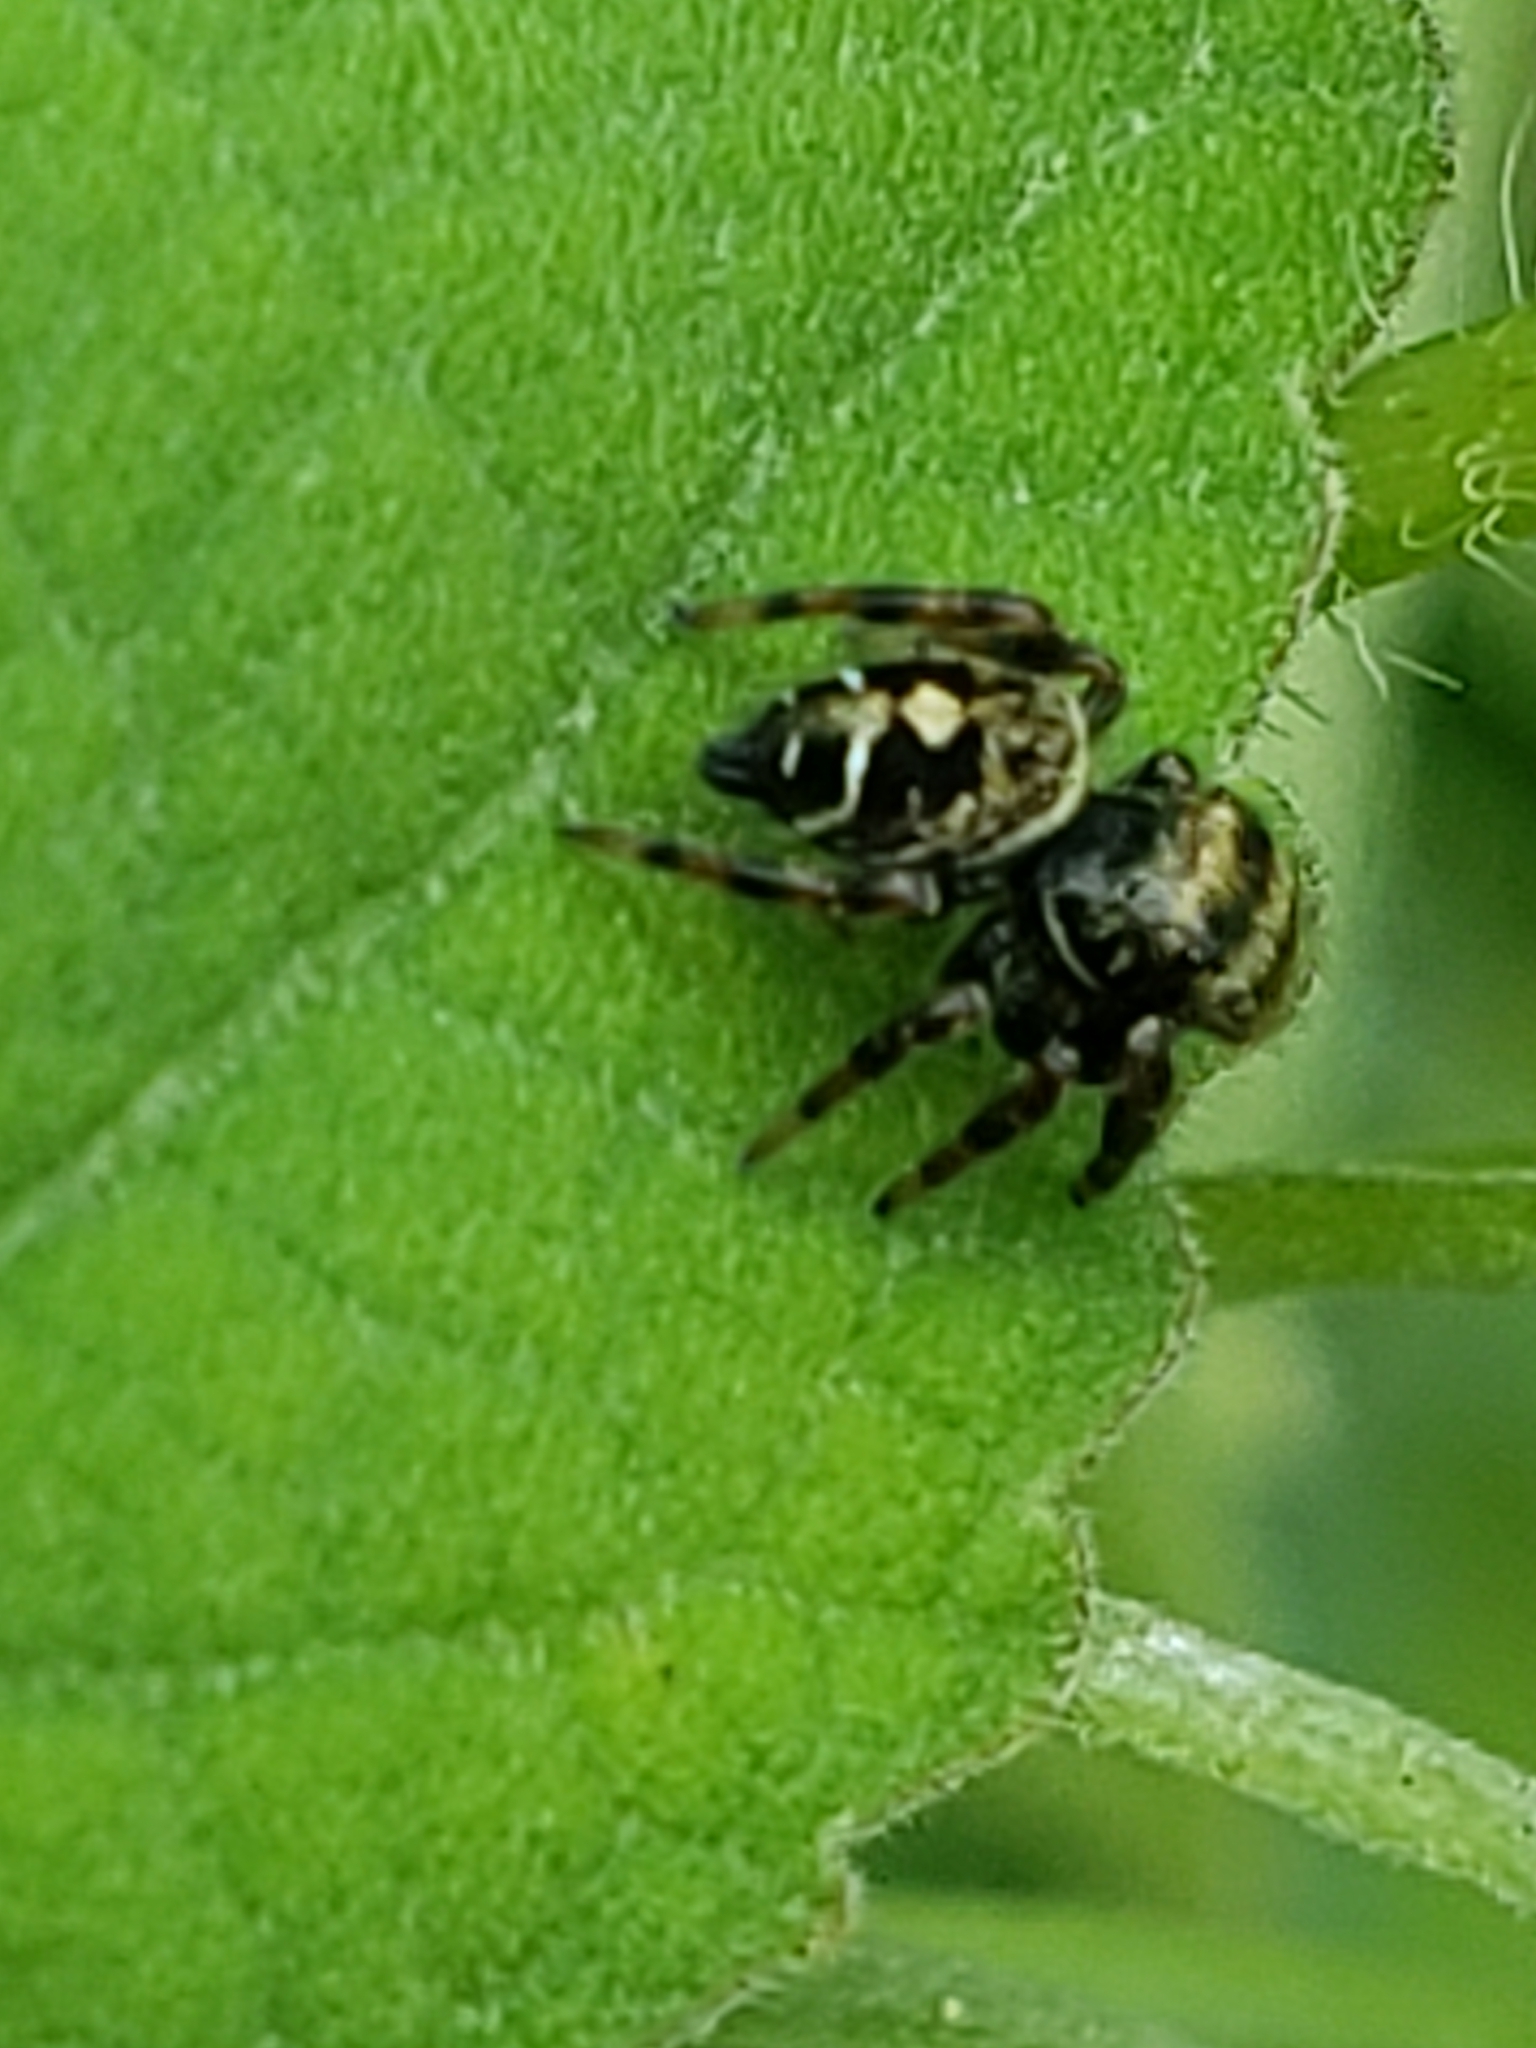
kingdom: Animalia
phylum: Arthropoda
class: Arachnida
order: Araneae
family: Salticidae
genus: Phidippus
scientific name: Phidippus audax
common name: Bold jumper
